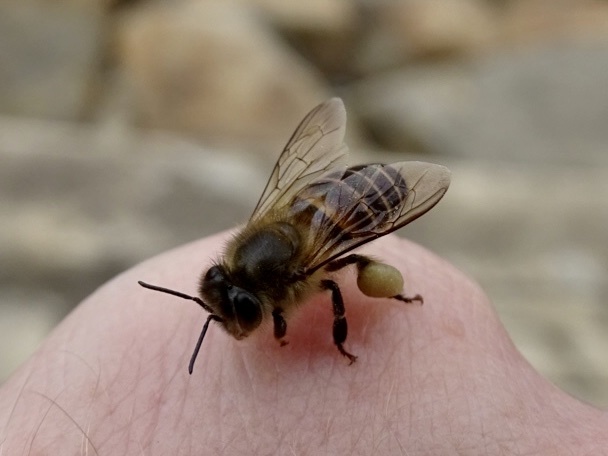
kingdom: Animalia
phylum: Arthropoda
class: Insecta
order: Hymenoptera
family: Apidae
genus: Apis
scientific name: Apis cerana
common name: Honey bee
